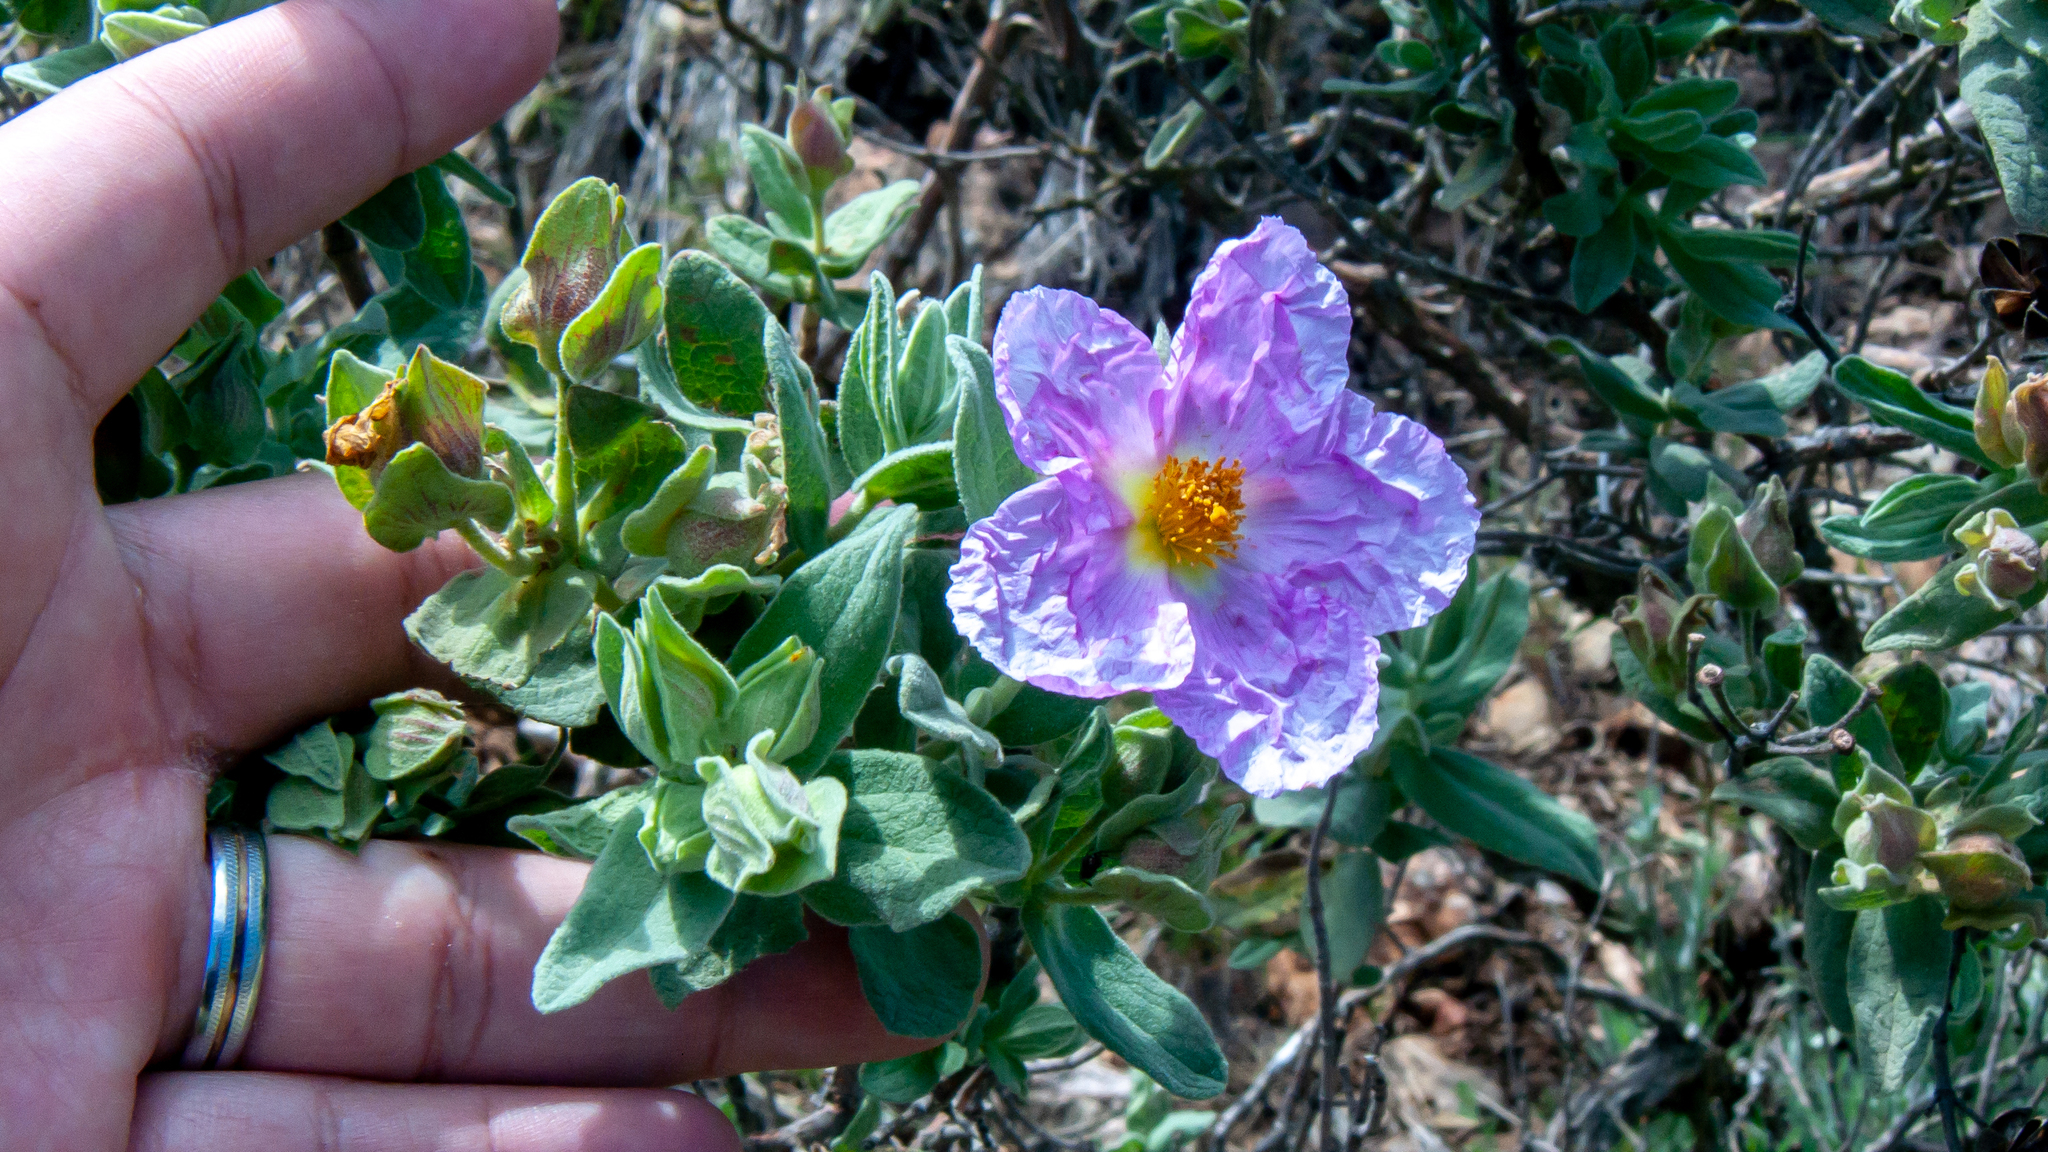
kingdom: Plantae
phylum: Tracheophyta
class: Magnoliopsida
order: Malvales
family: Cistaceae
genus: Cistus
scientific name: Cistus albidus
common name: White-leaf rock-rose
